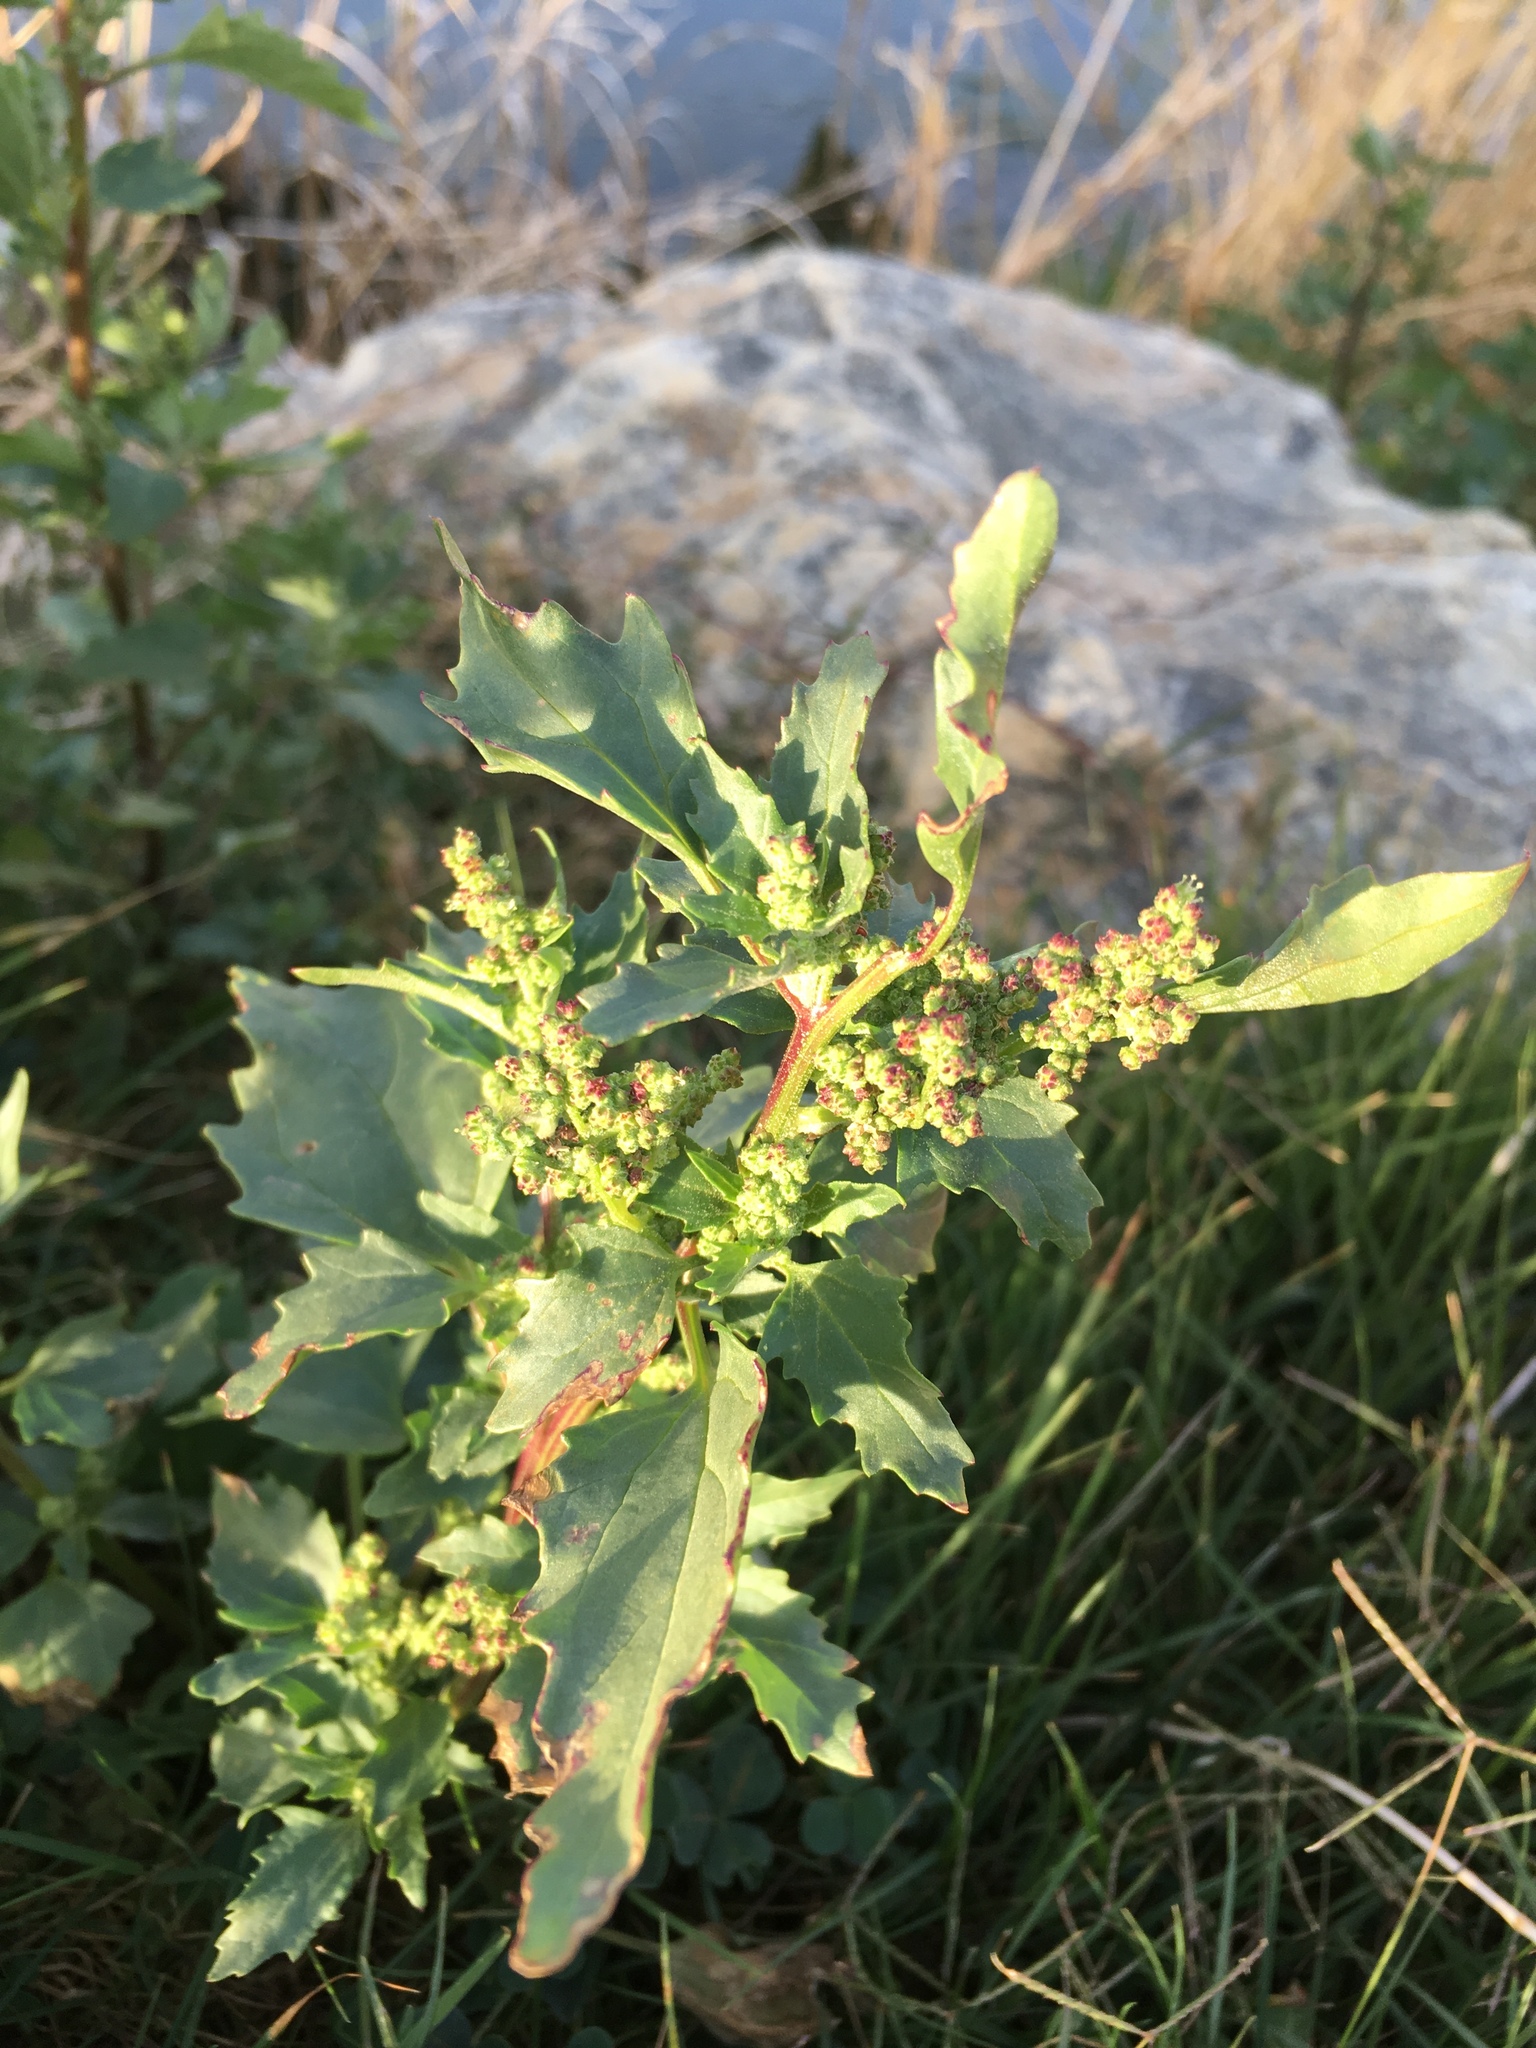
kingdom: Plantae
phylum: Tracheophyta
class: Magnoliopsida
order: Caryophyllales
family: Amaranthaceae
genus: Chenopodiastrum
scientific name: Chenopodiastrum murale
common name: Sowbane
